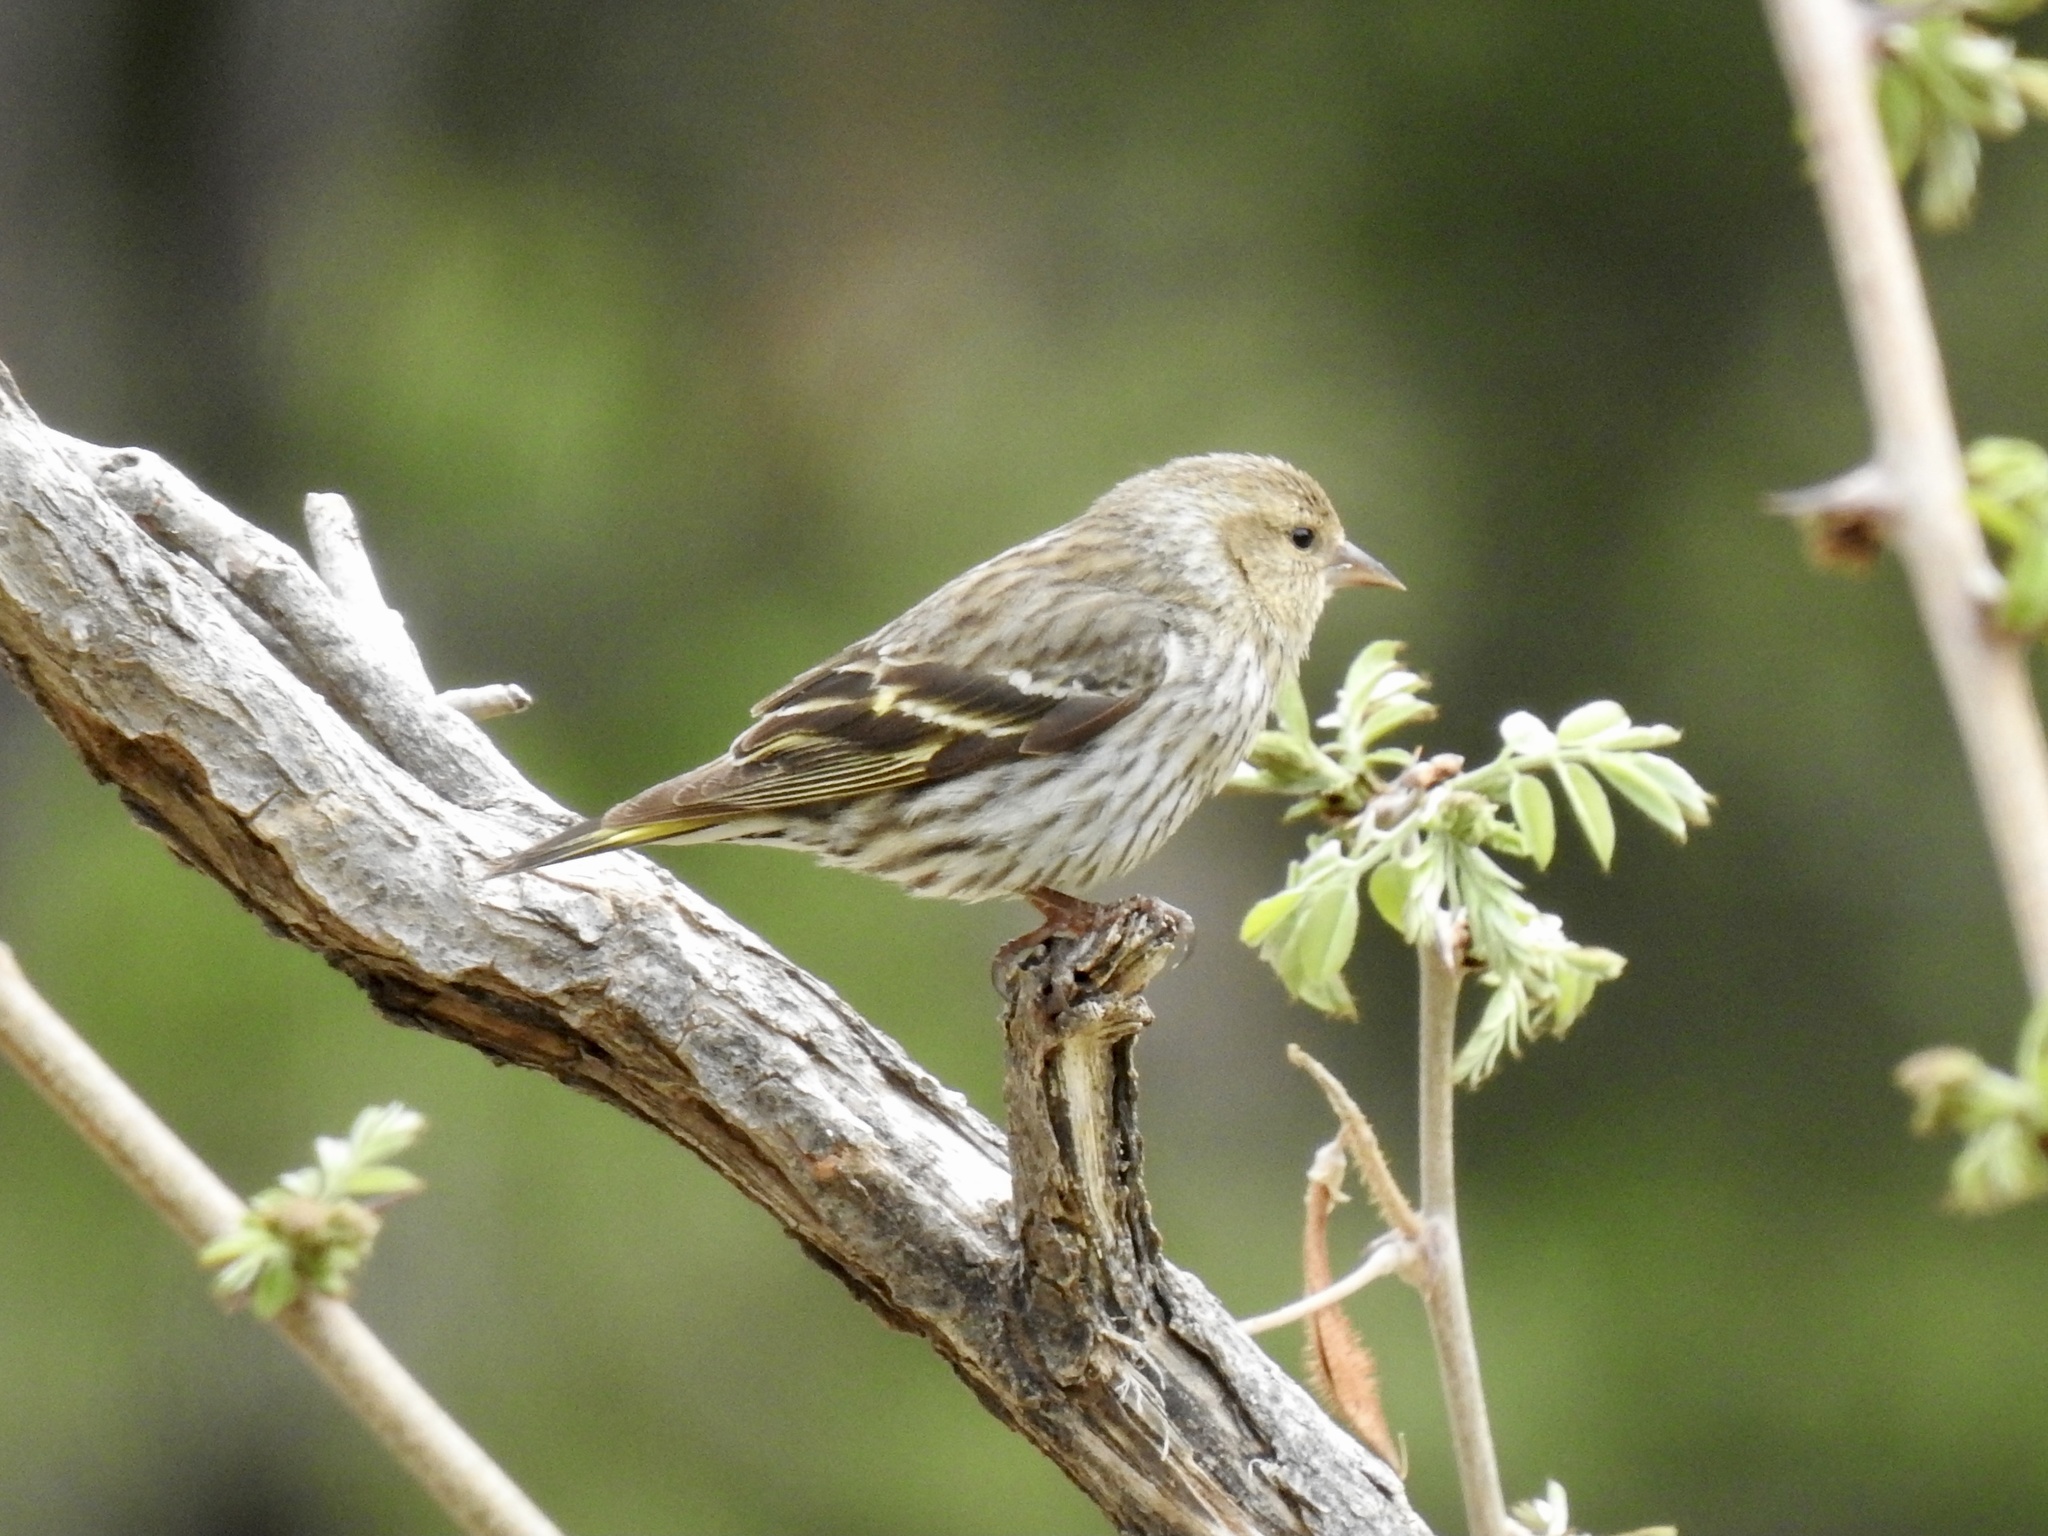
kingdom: Animalia
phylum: Chordata
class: Aves
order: Passeriformes
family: Fringillidae
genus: Spinus
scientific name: Spinus pinus
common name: Pine siskin
